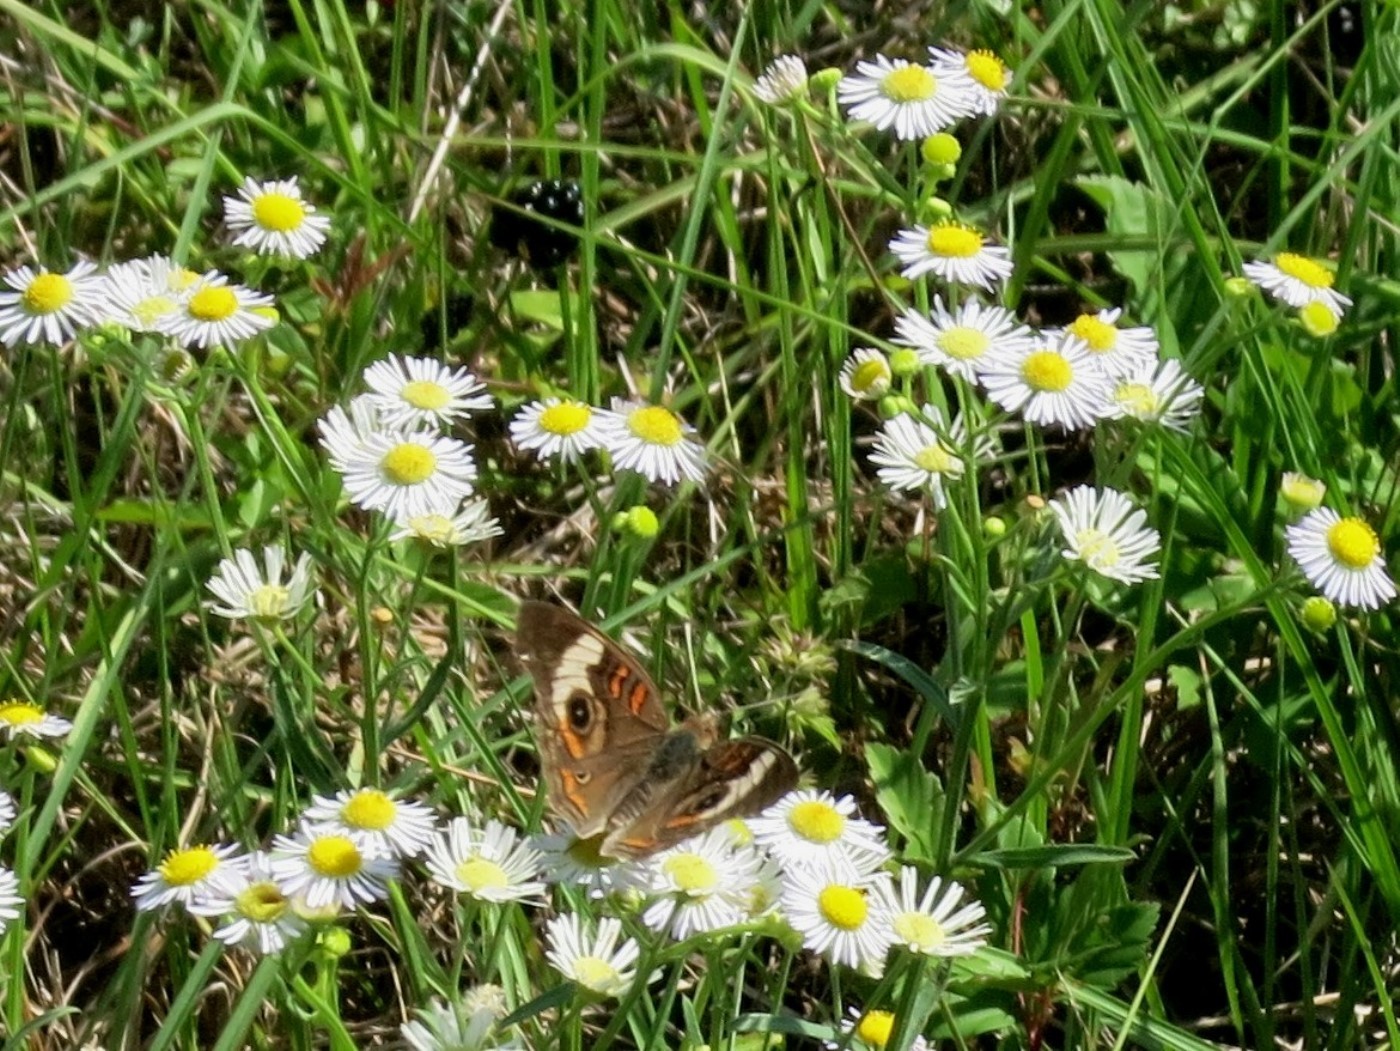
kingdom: Animalia
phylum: Arthropoda
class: Insecta
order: Lepidoptera
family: Nymphalidae
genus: Junonia
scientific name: Junonia coenia
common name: Common buckeye
